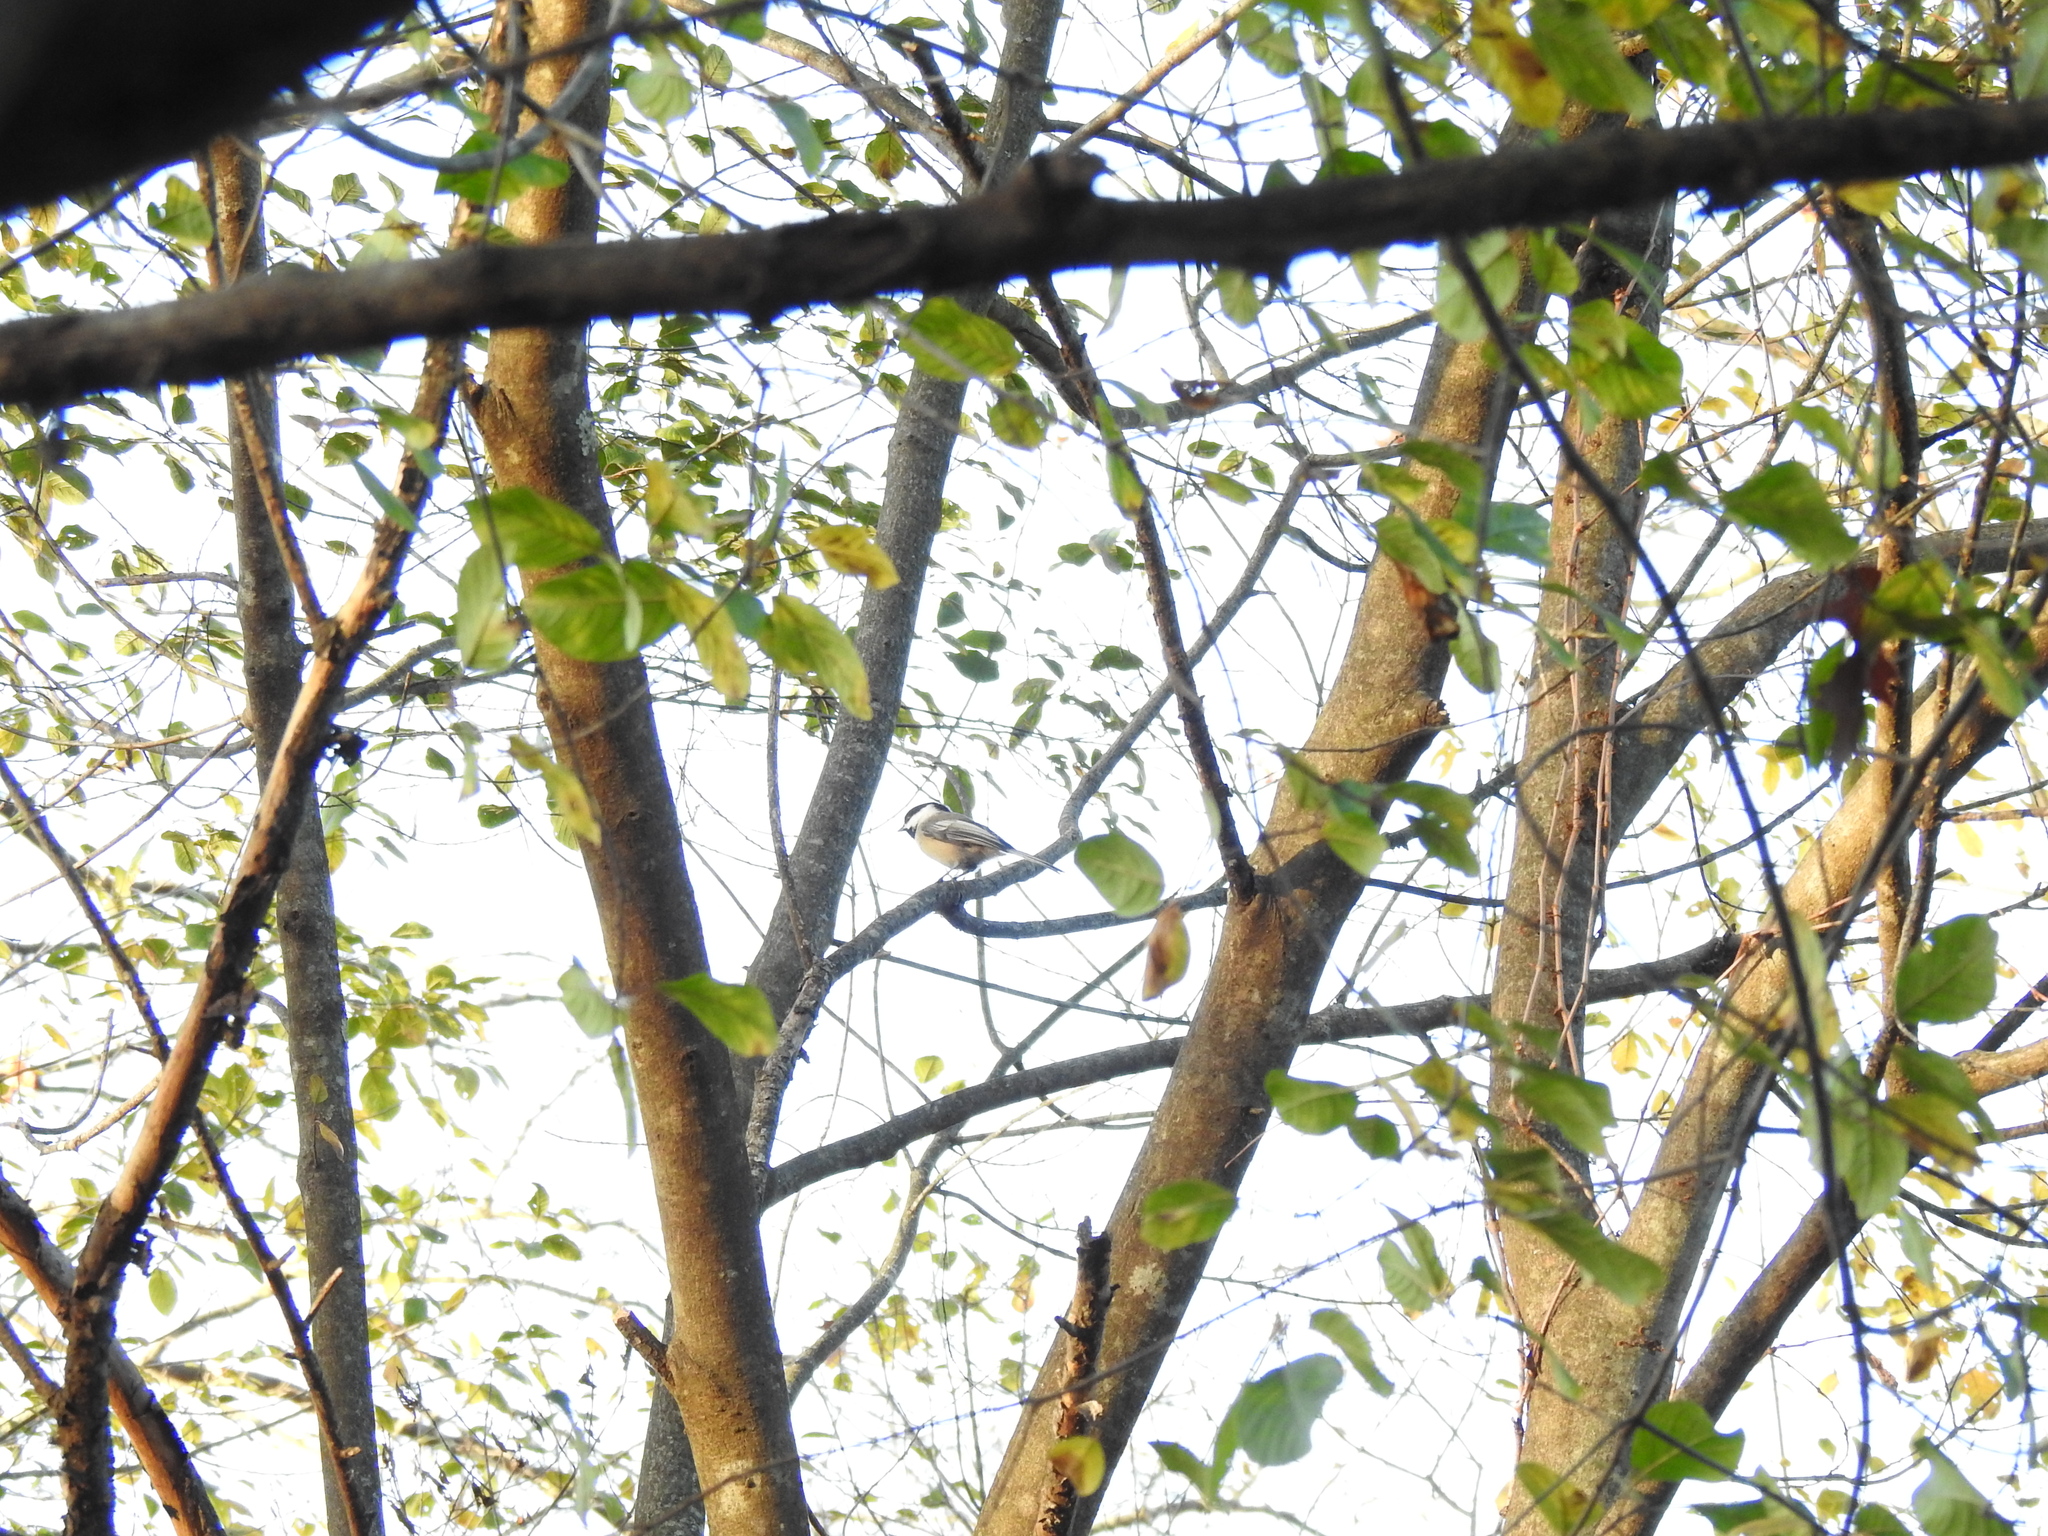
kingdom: Animalia
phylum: Chordata
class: Aves
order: Passeriformes
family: Paridae
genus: Poecile
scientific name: Poecile atricapillus
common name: Black-capped chickadee
